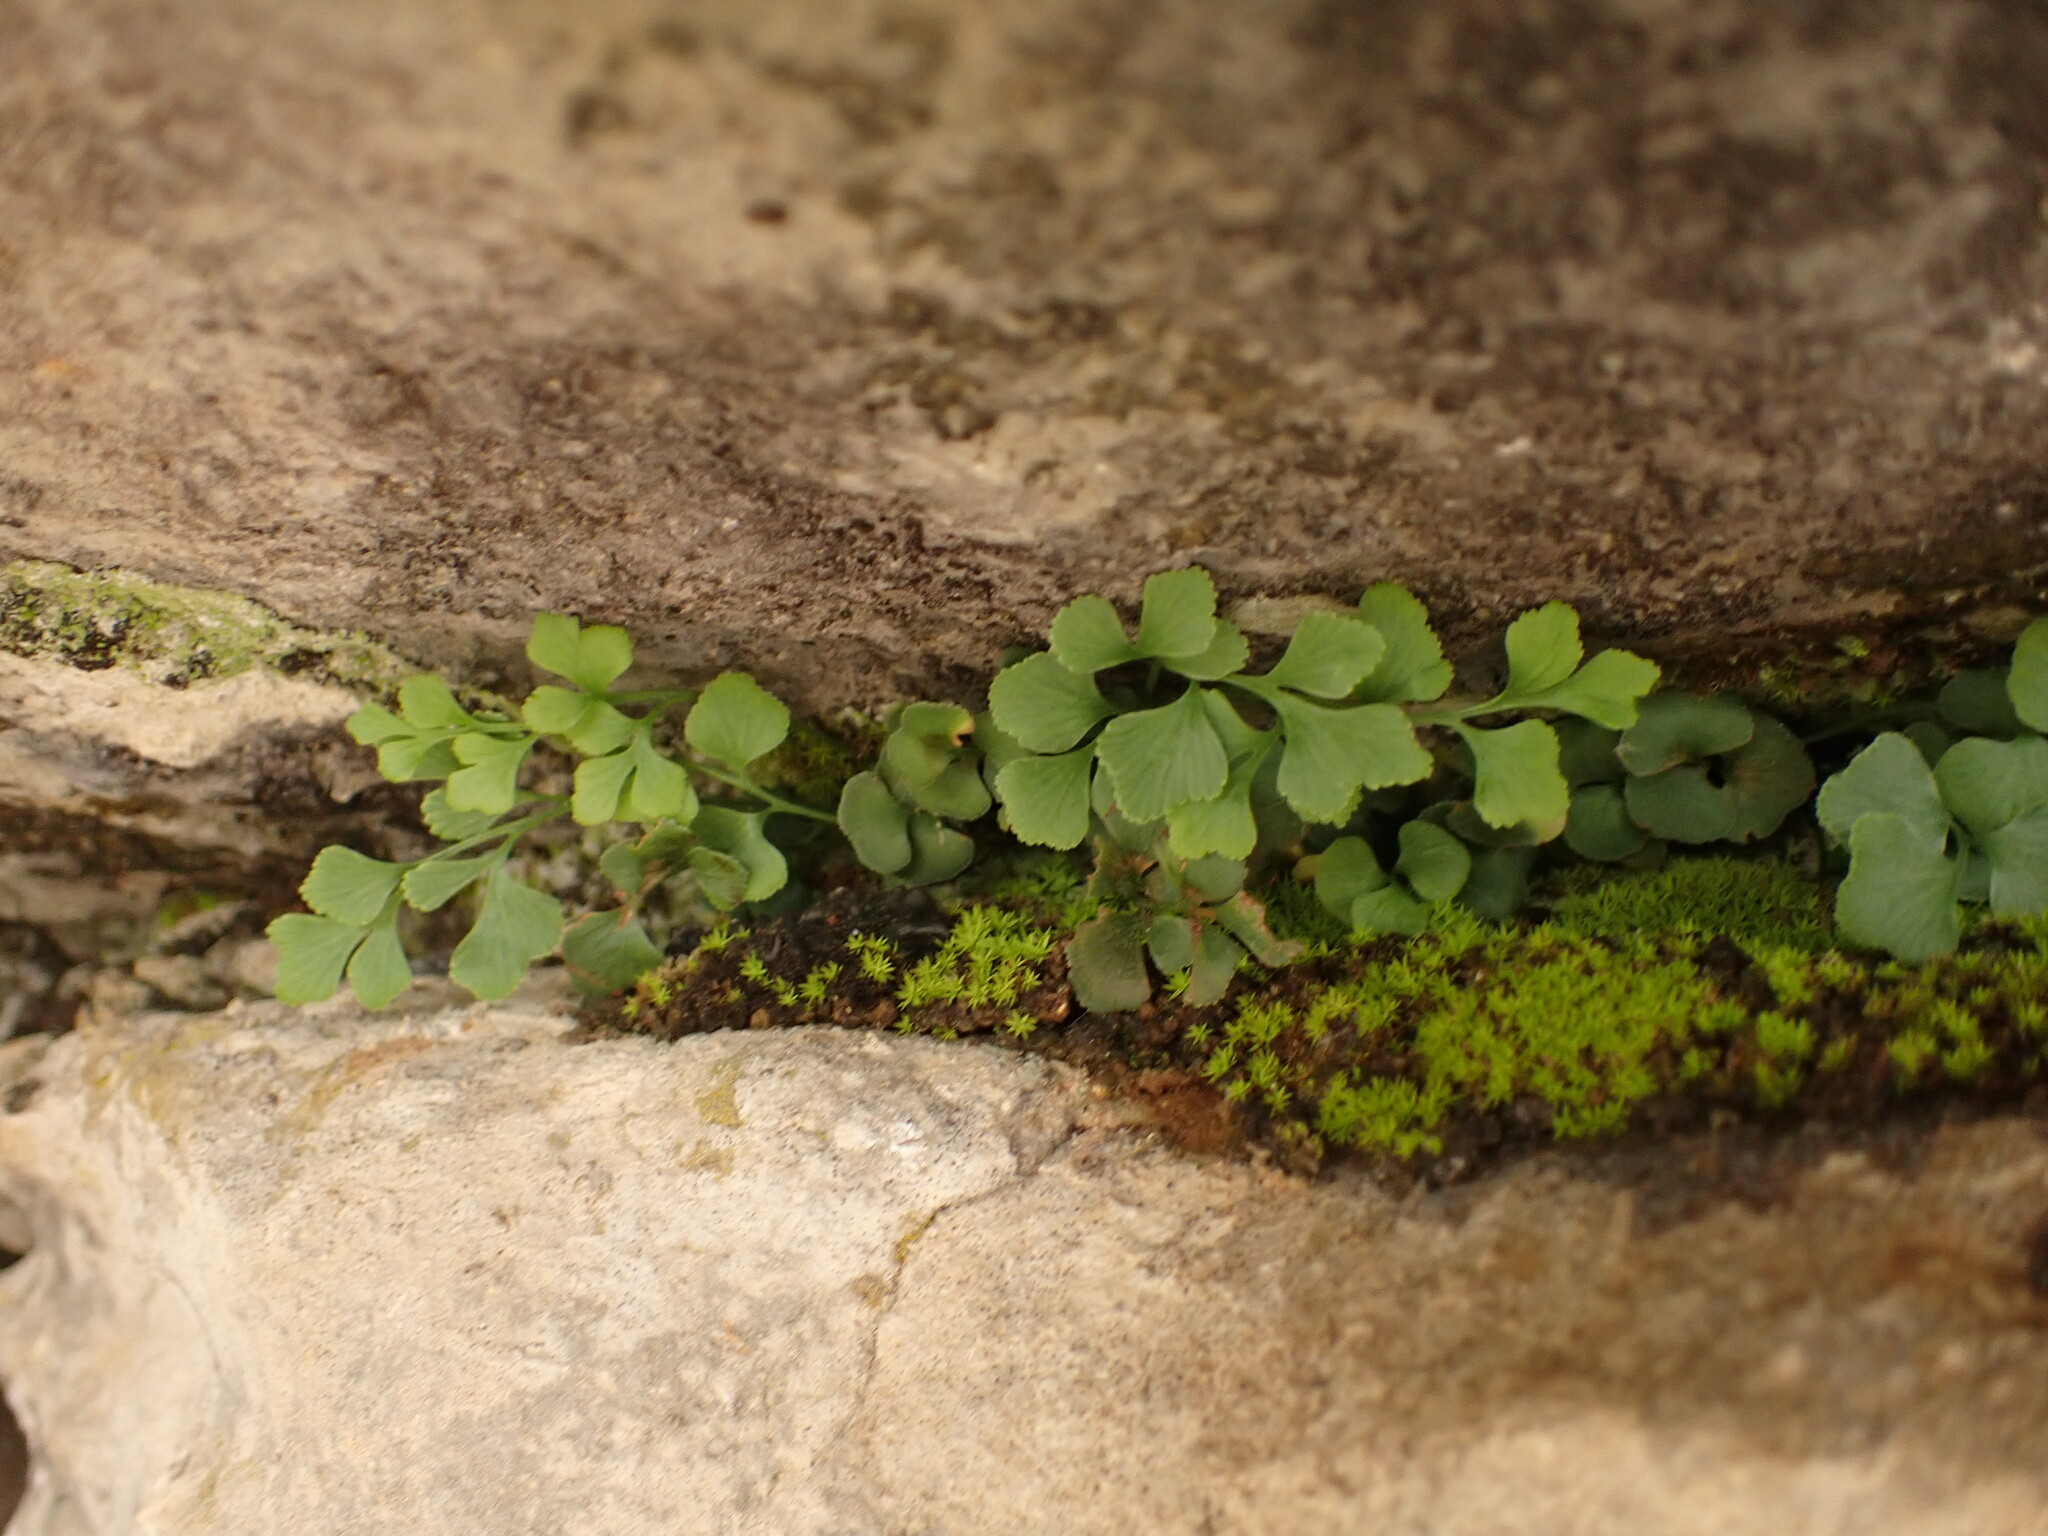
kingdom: Plantae
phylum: Tracheophyta
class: Polypodiopsida
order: Polypodiales
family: Aspleniaceae
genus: Asplenium
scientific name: Asplenium ruta-muraria
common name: Wall-rue
